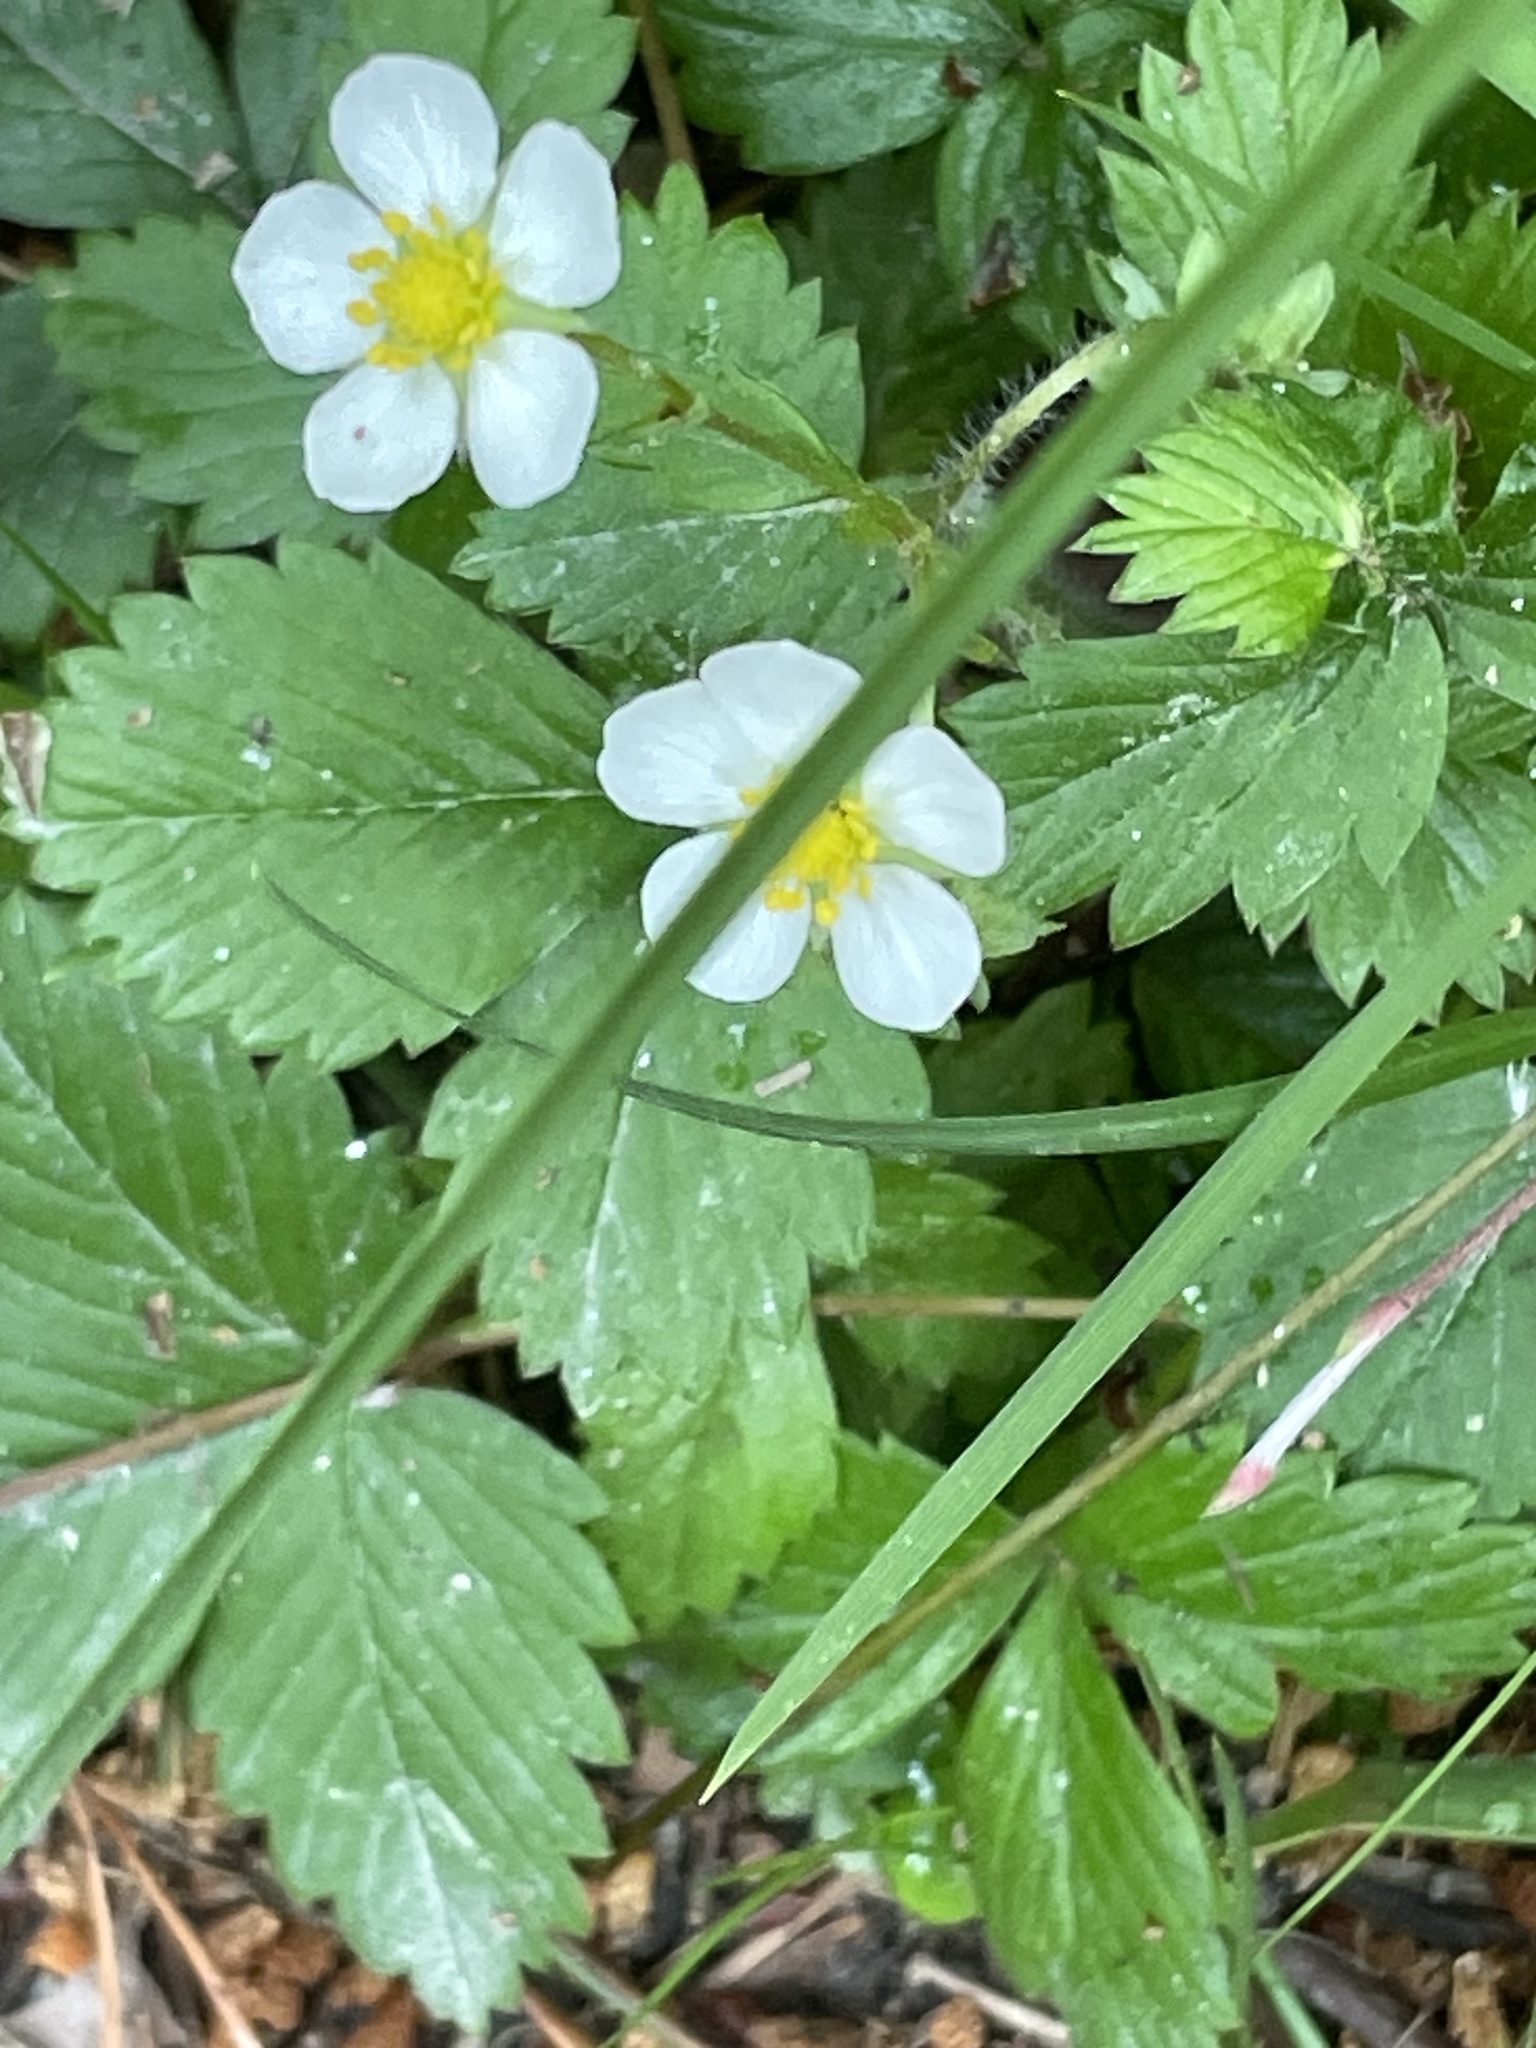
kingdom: Plantae
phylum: Tracheophyta
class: Magnoliopsida
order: Rosales
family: Rosaceae
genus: Fragaria
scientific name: Fragaria vesca
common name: Wild strawberry
